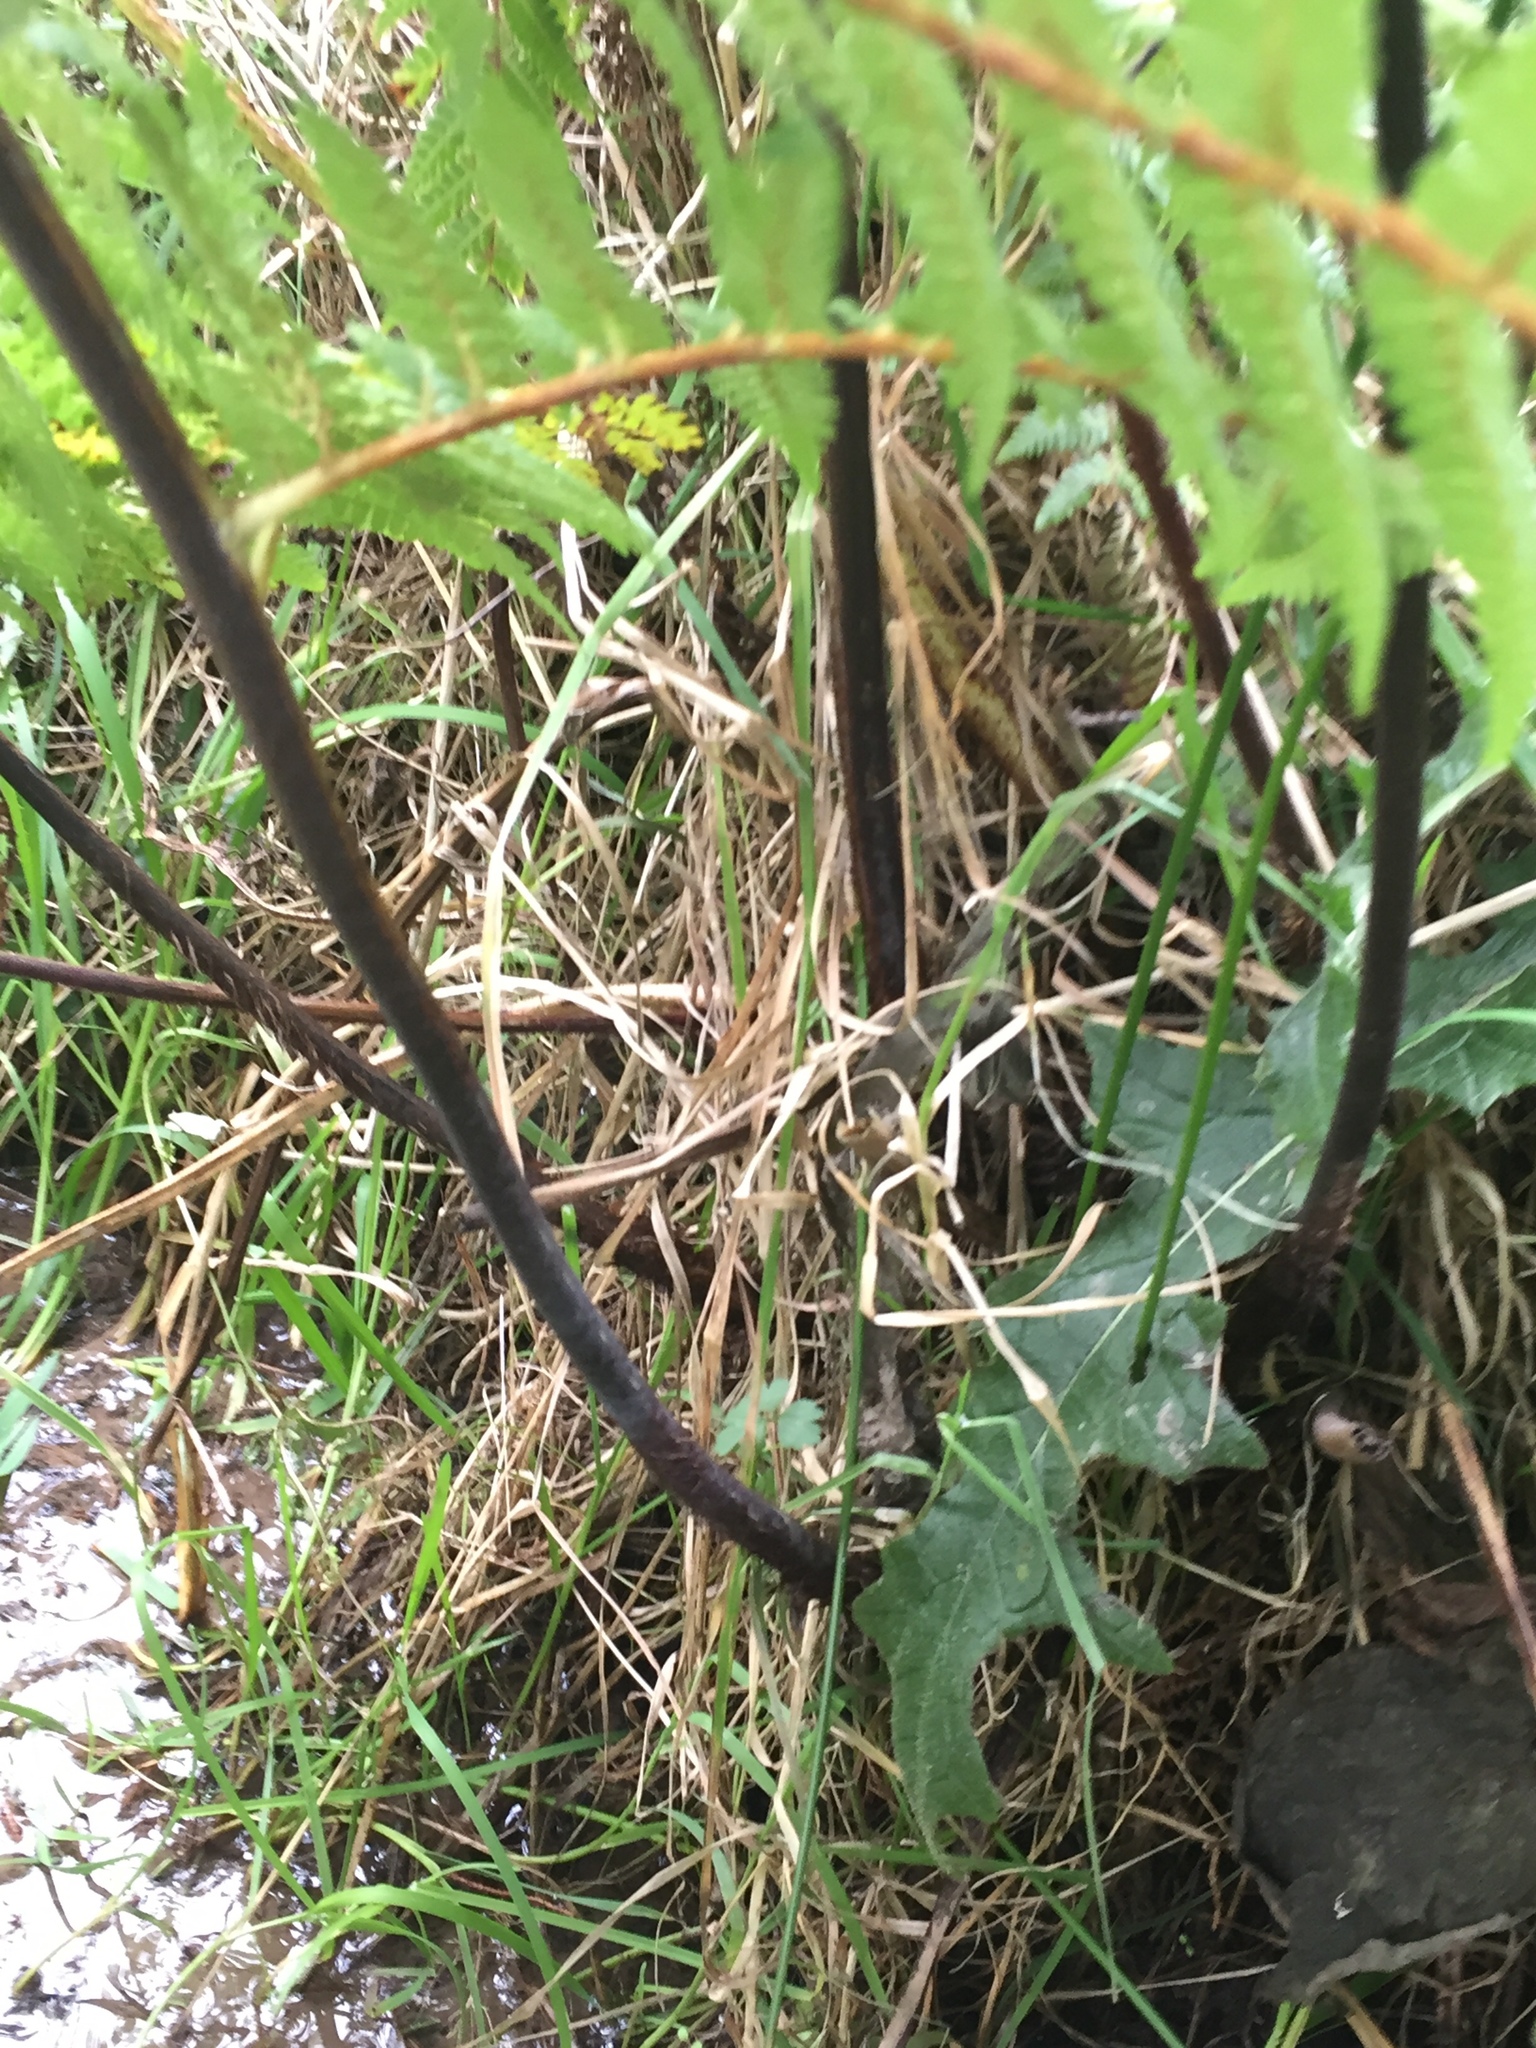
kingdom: Plantae
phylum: Tracheophyta
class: Polypodiopsida
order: Cyatheales
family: Cyatheaceae
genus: Sphaeropteris
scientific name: Sphaeropteris medullaris
